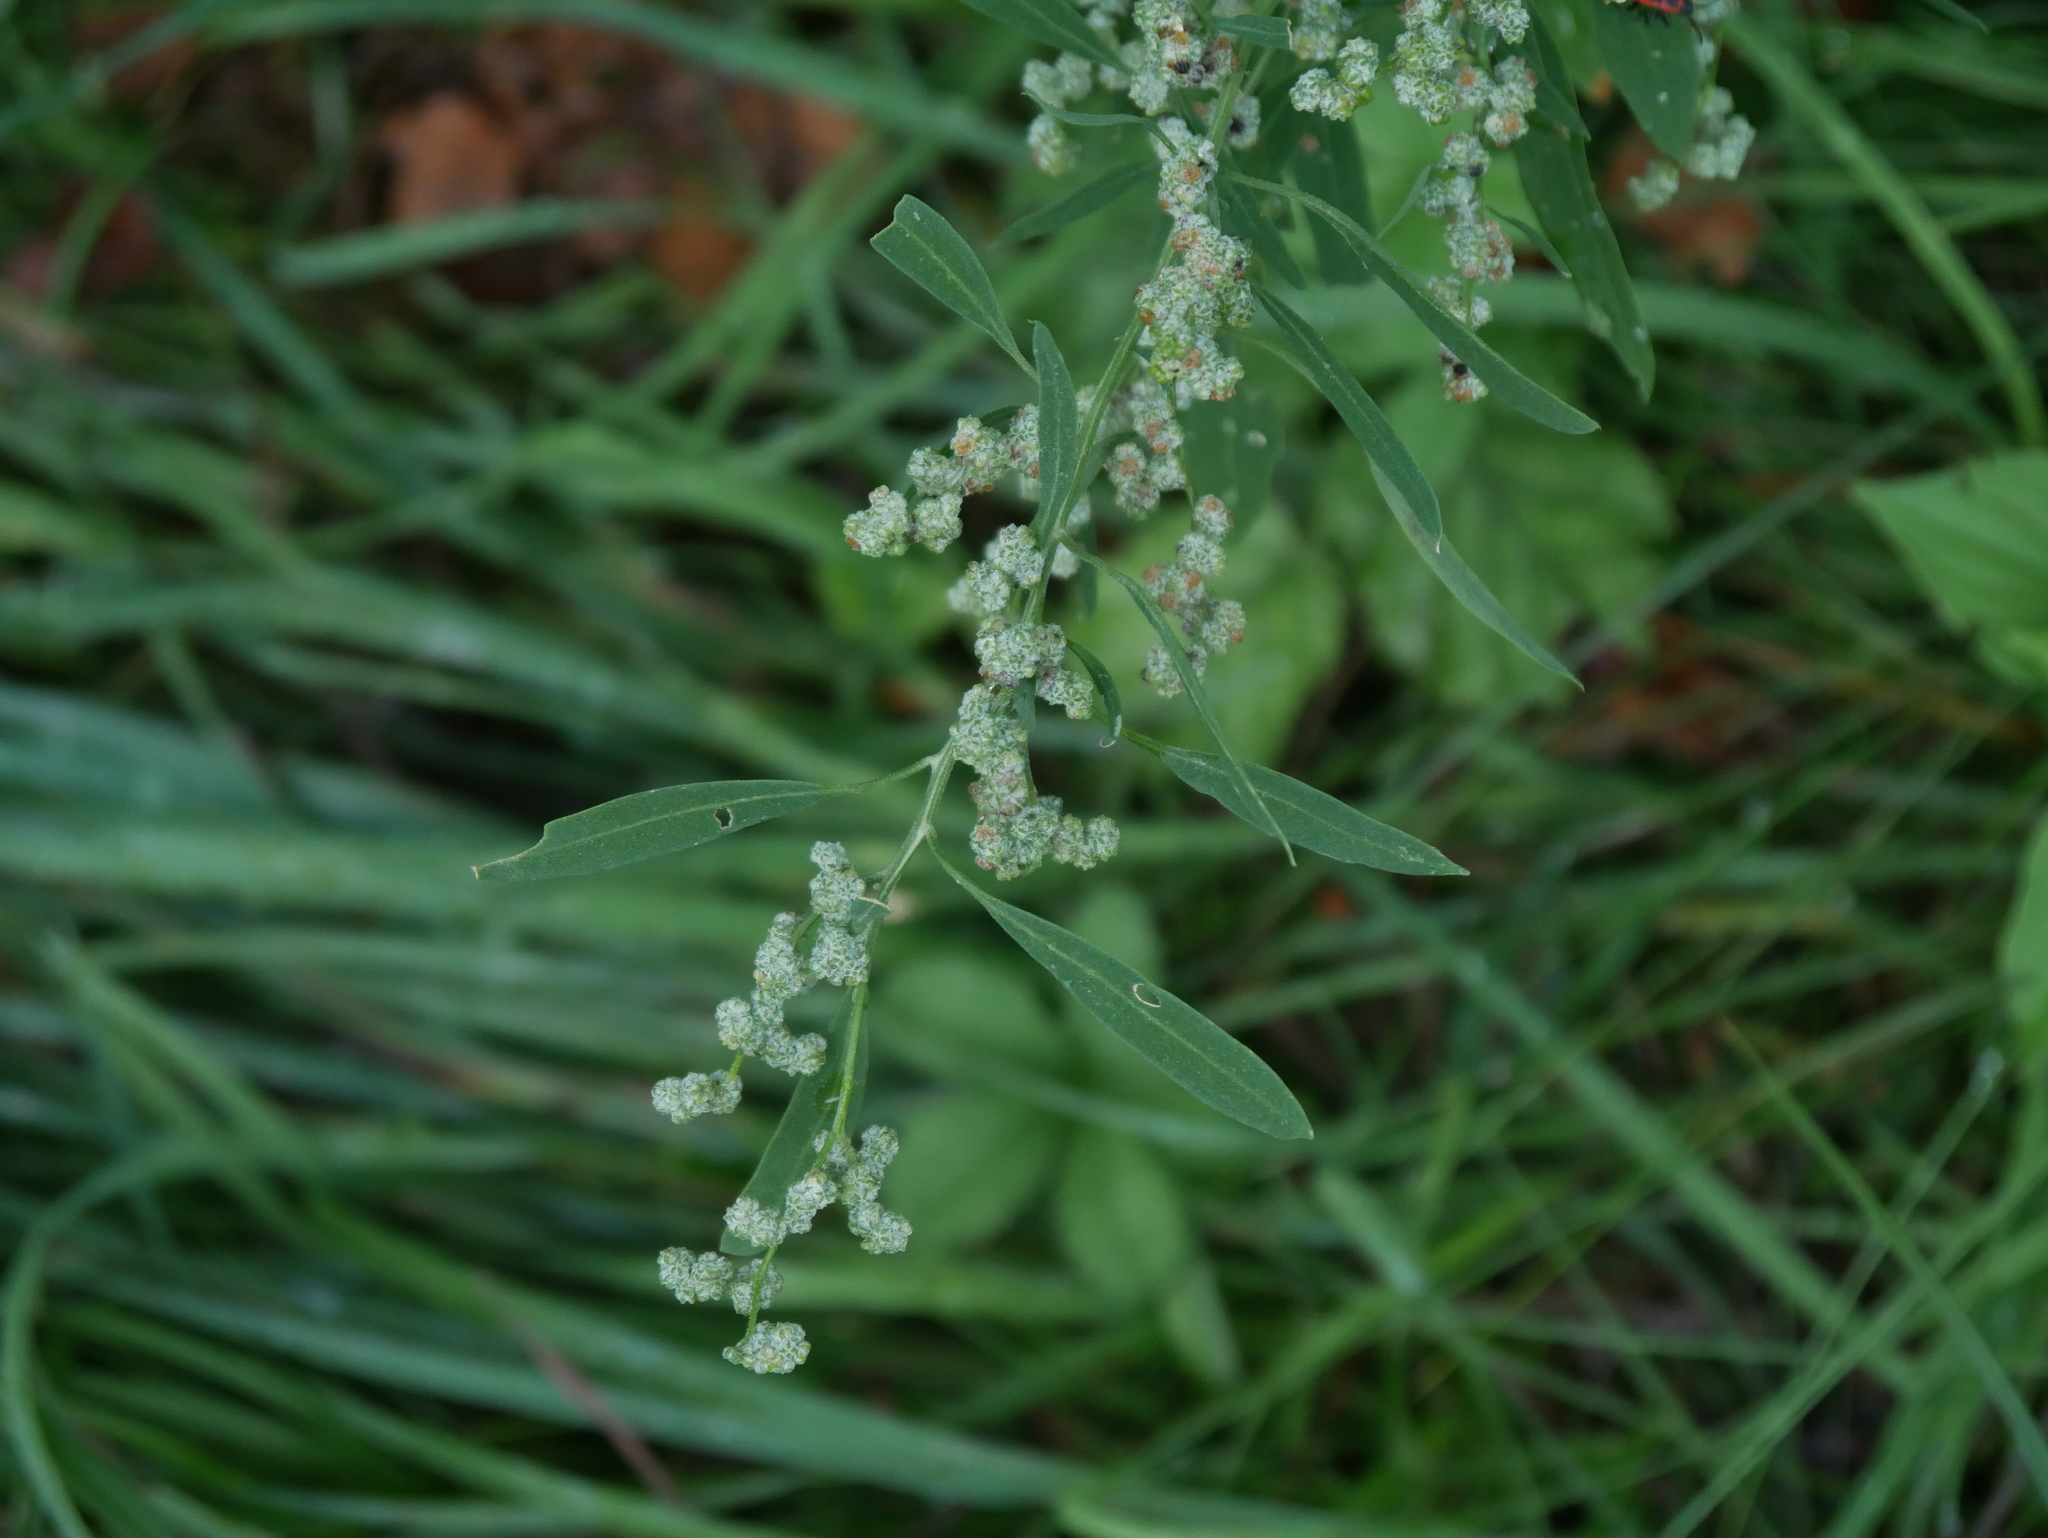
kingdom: Plantae
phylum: Tracheophyta
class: Magnoliopsida
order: Caryophyllales
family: Amaranthaceae
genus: Chenopodium
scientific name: Chenopodium album
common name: Fat-hen
